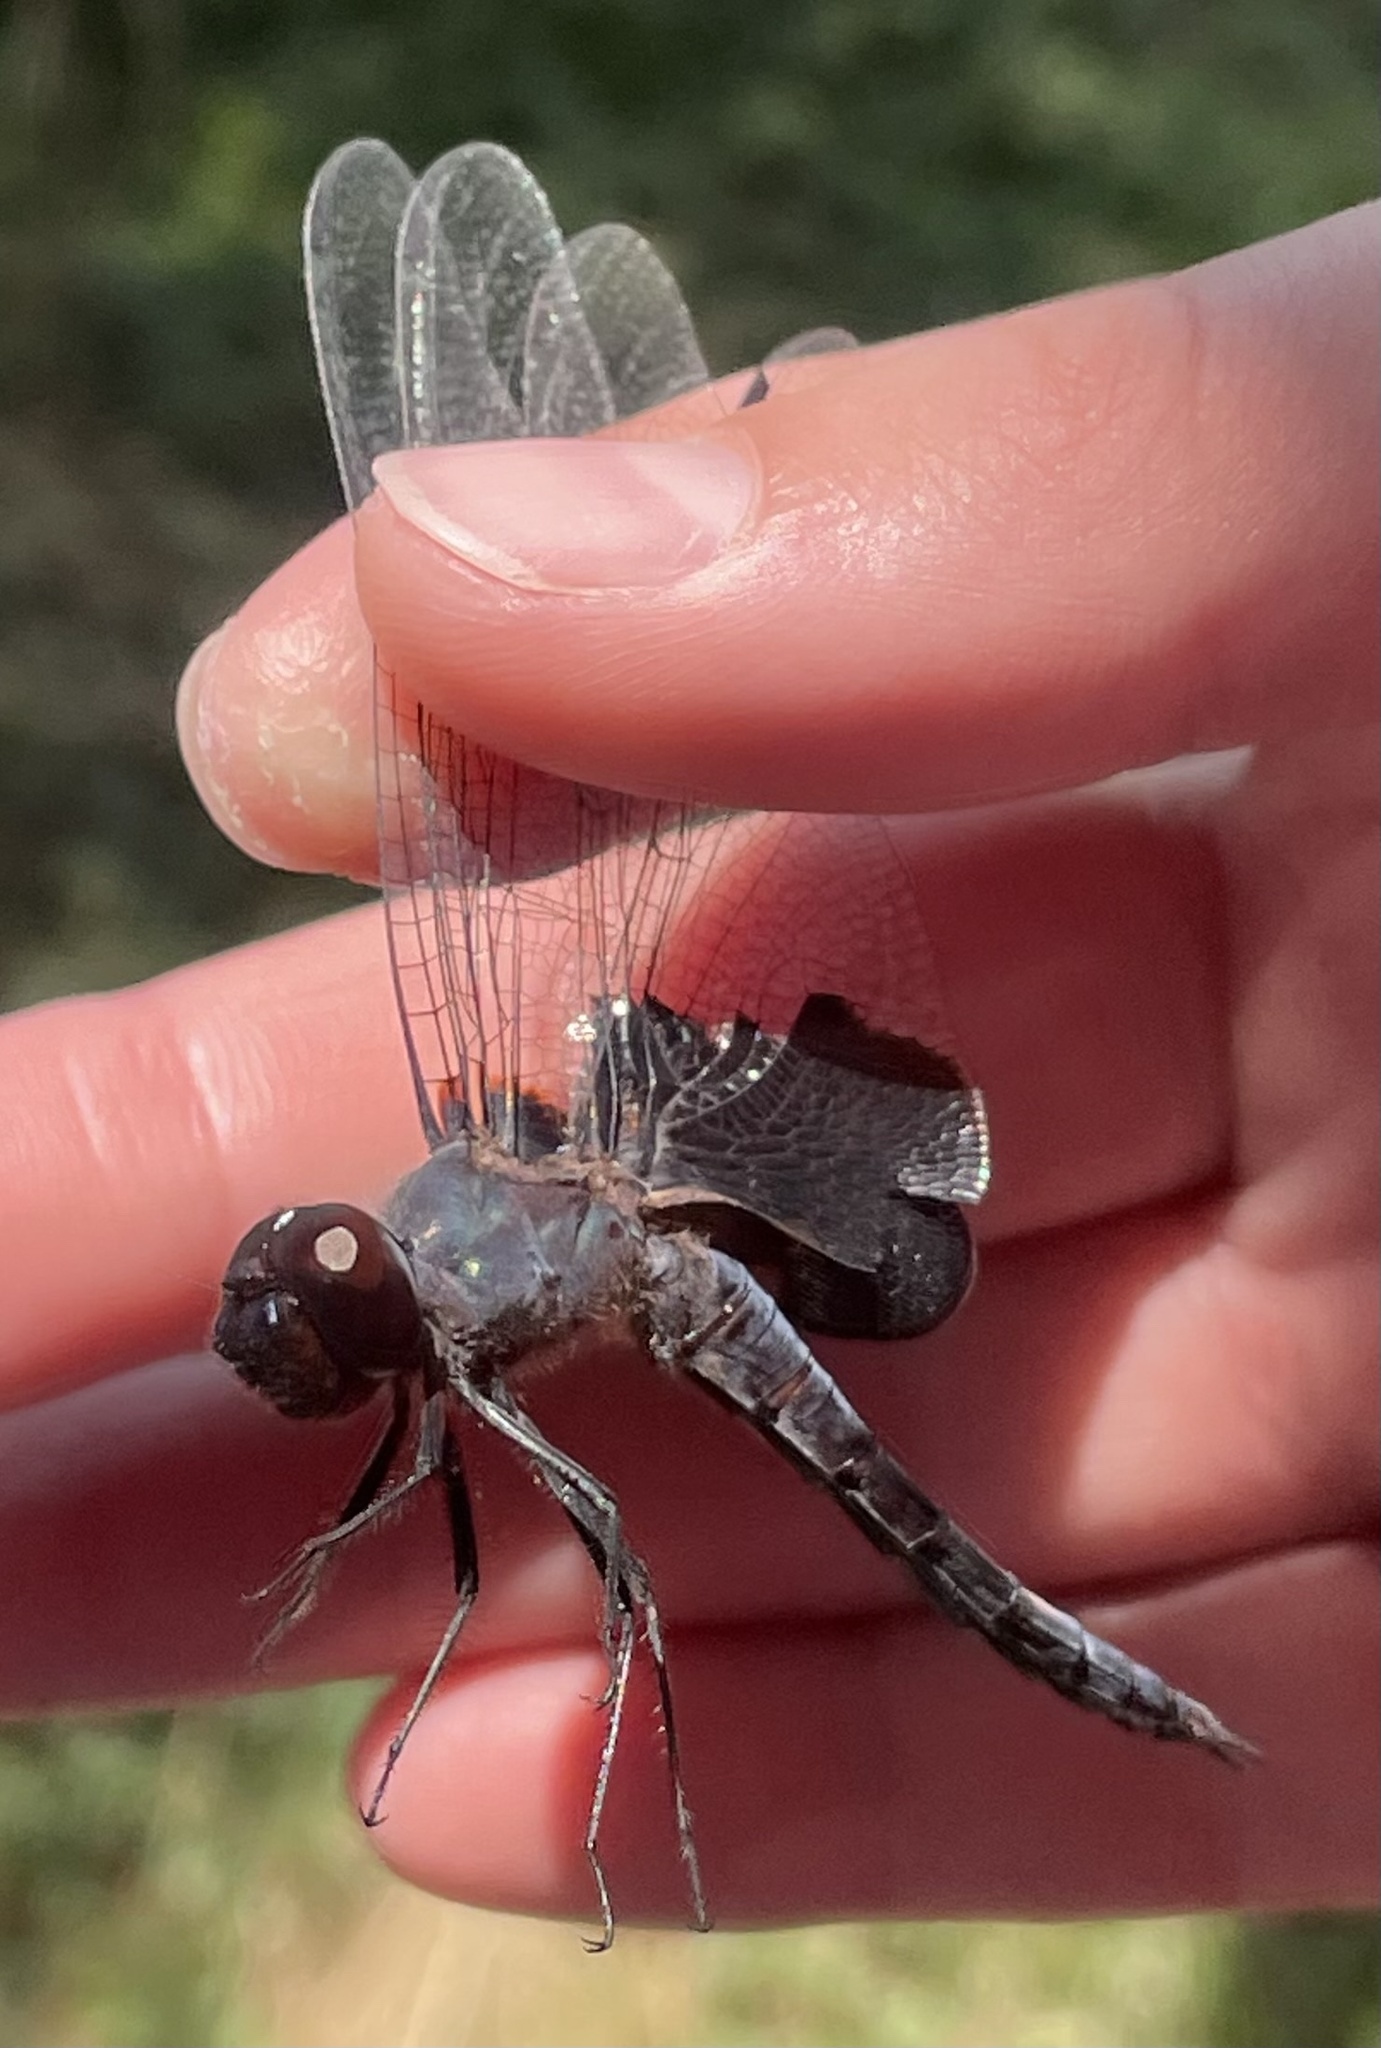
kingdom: Animalia
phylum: Arthropoda
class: Insecta
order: Odonata
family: Libellulidae
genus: Tramea
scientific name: Tramea lacerata
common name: Black saddlebags
